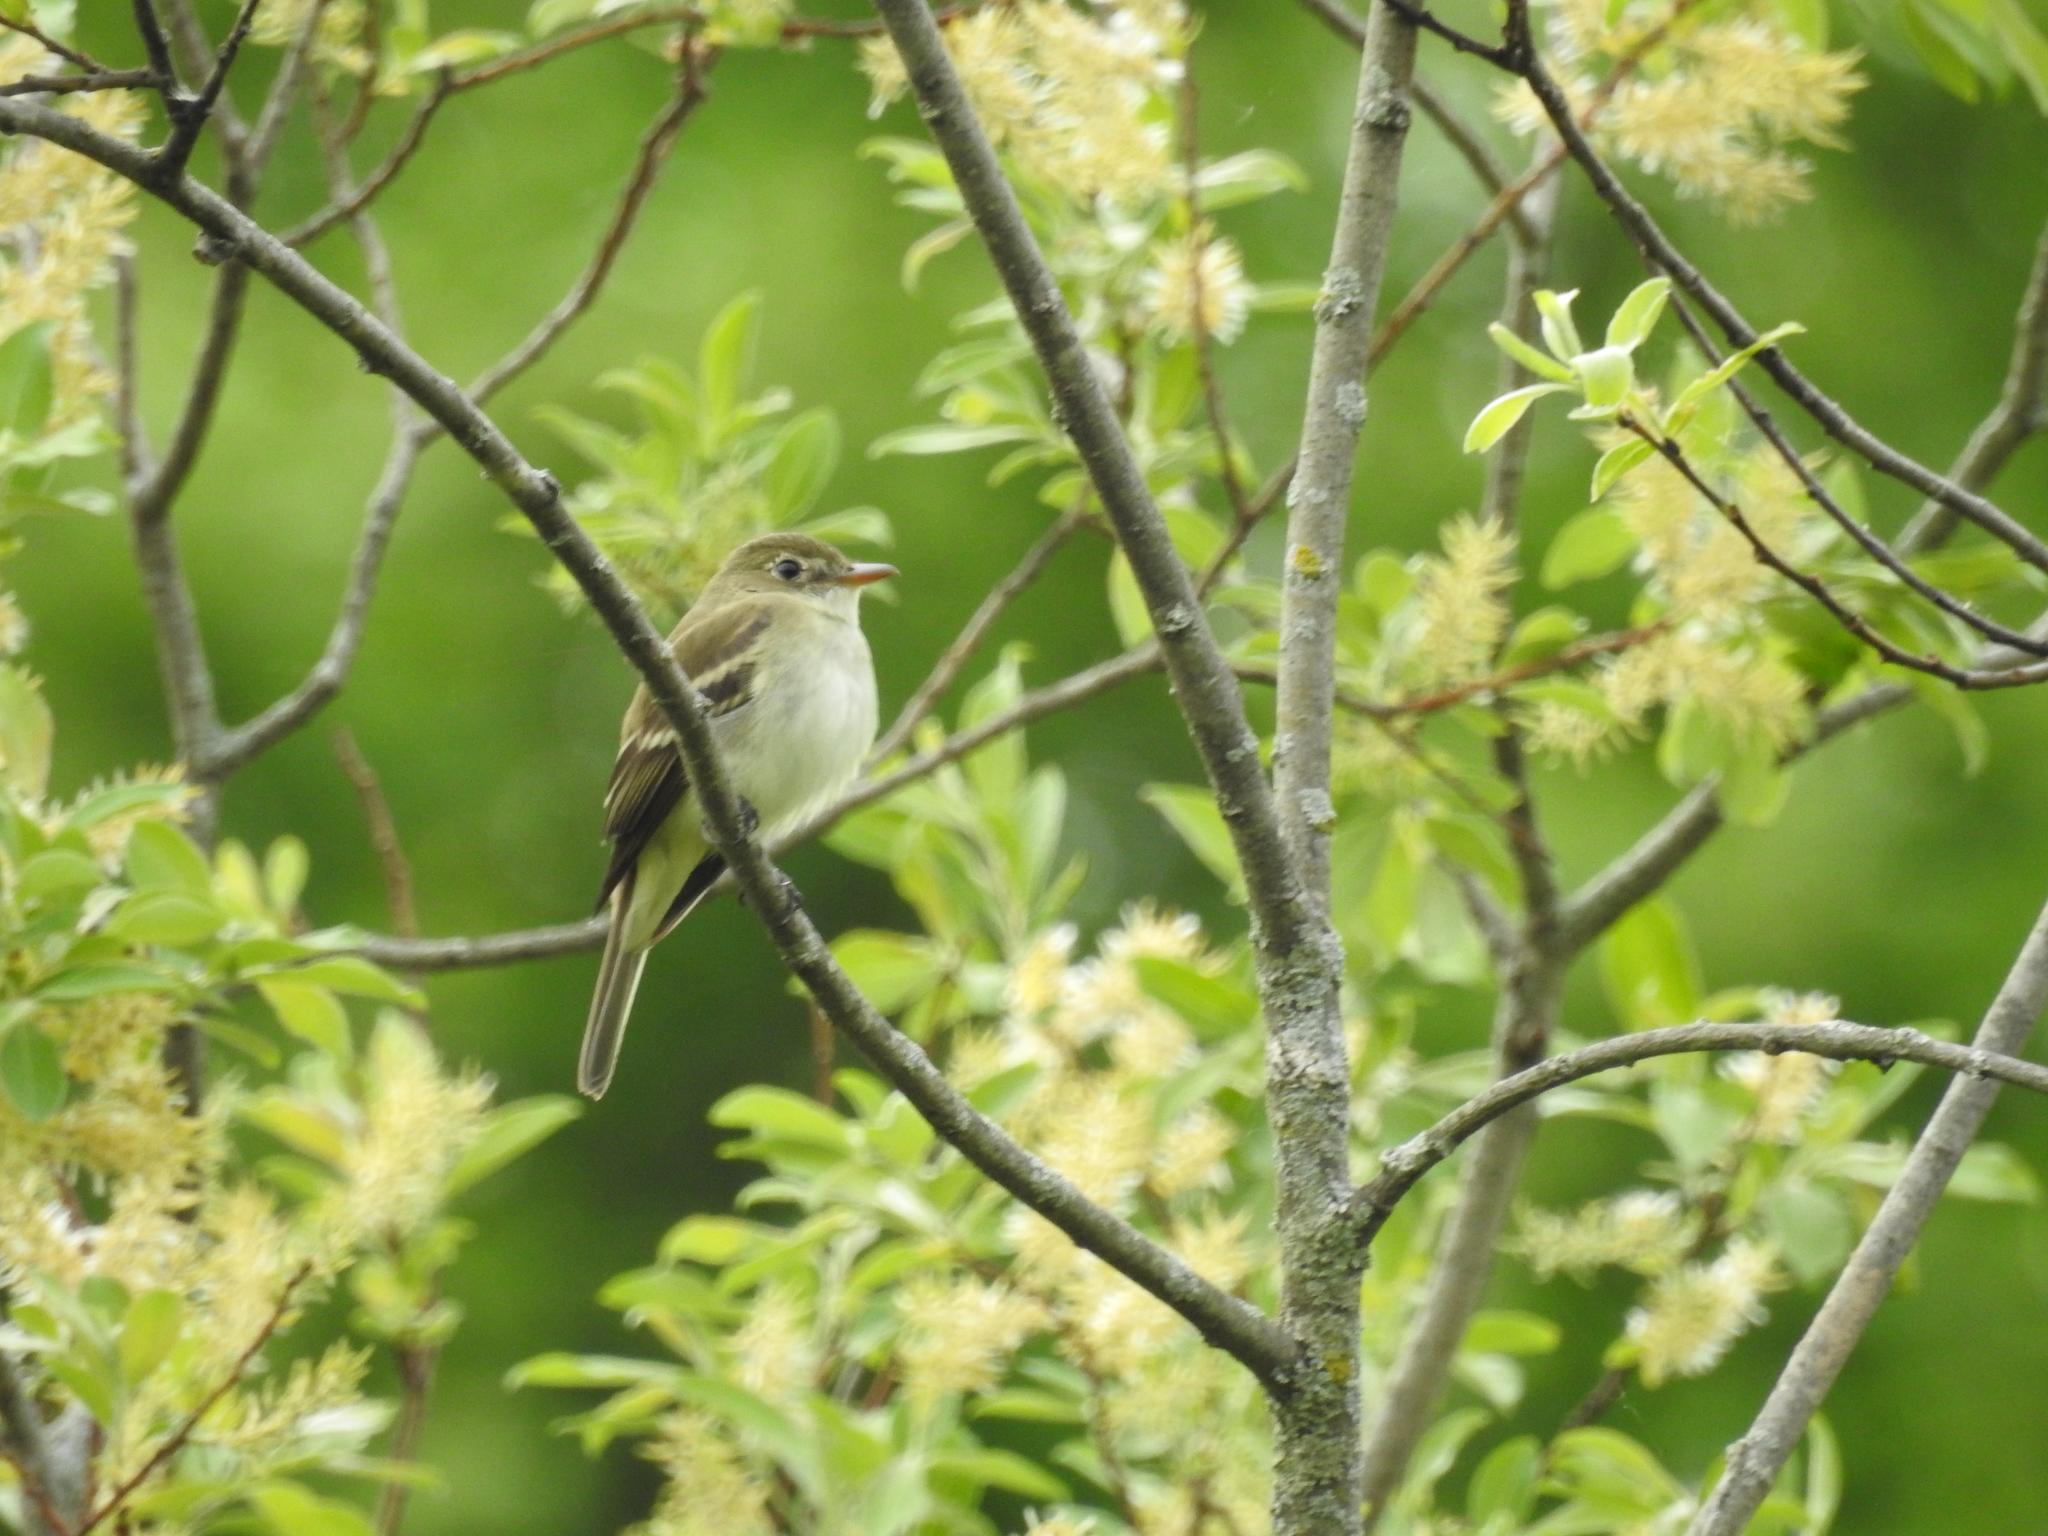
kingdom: Animalia
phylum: Chordata
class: Aves
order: Passeriformes
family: Tyrannidae
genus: Empidonax
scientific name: Empidonax alnorum
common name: Alder flycatcher
